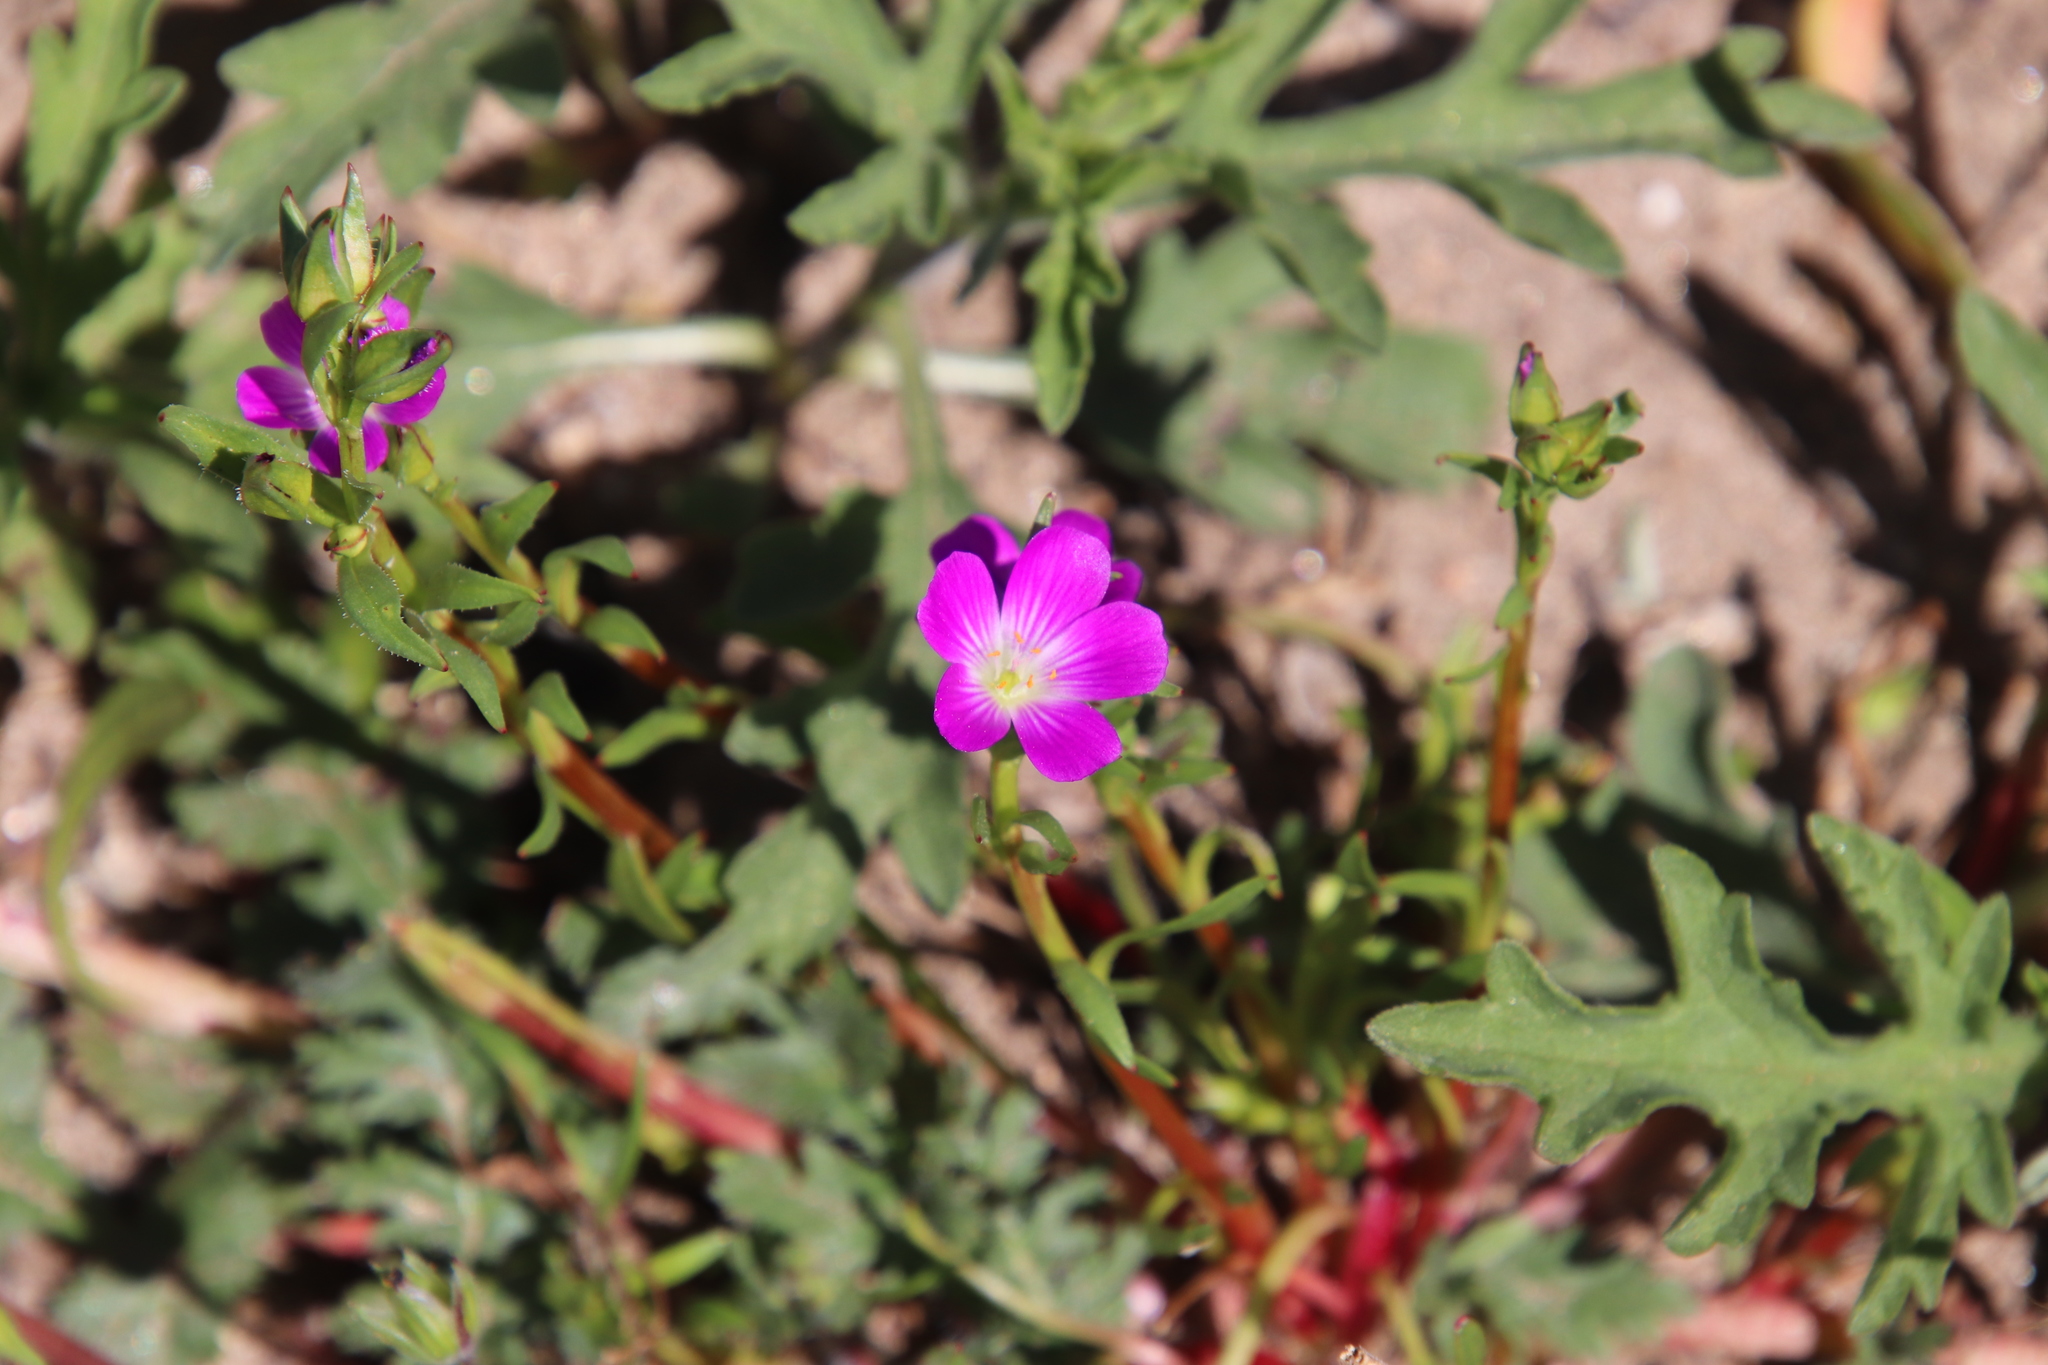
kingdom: Plantae
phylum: Tracheophyta
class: Magnoliopsida
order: Caryophyllales
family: Montiaceae
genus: Calandrinia
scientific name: Calandrinia menziesii
